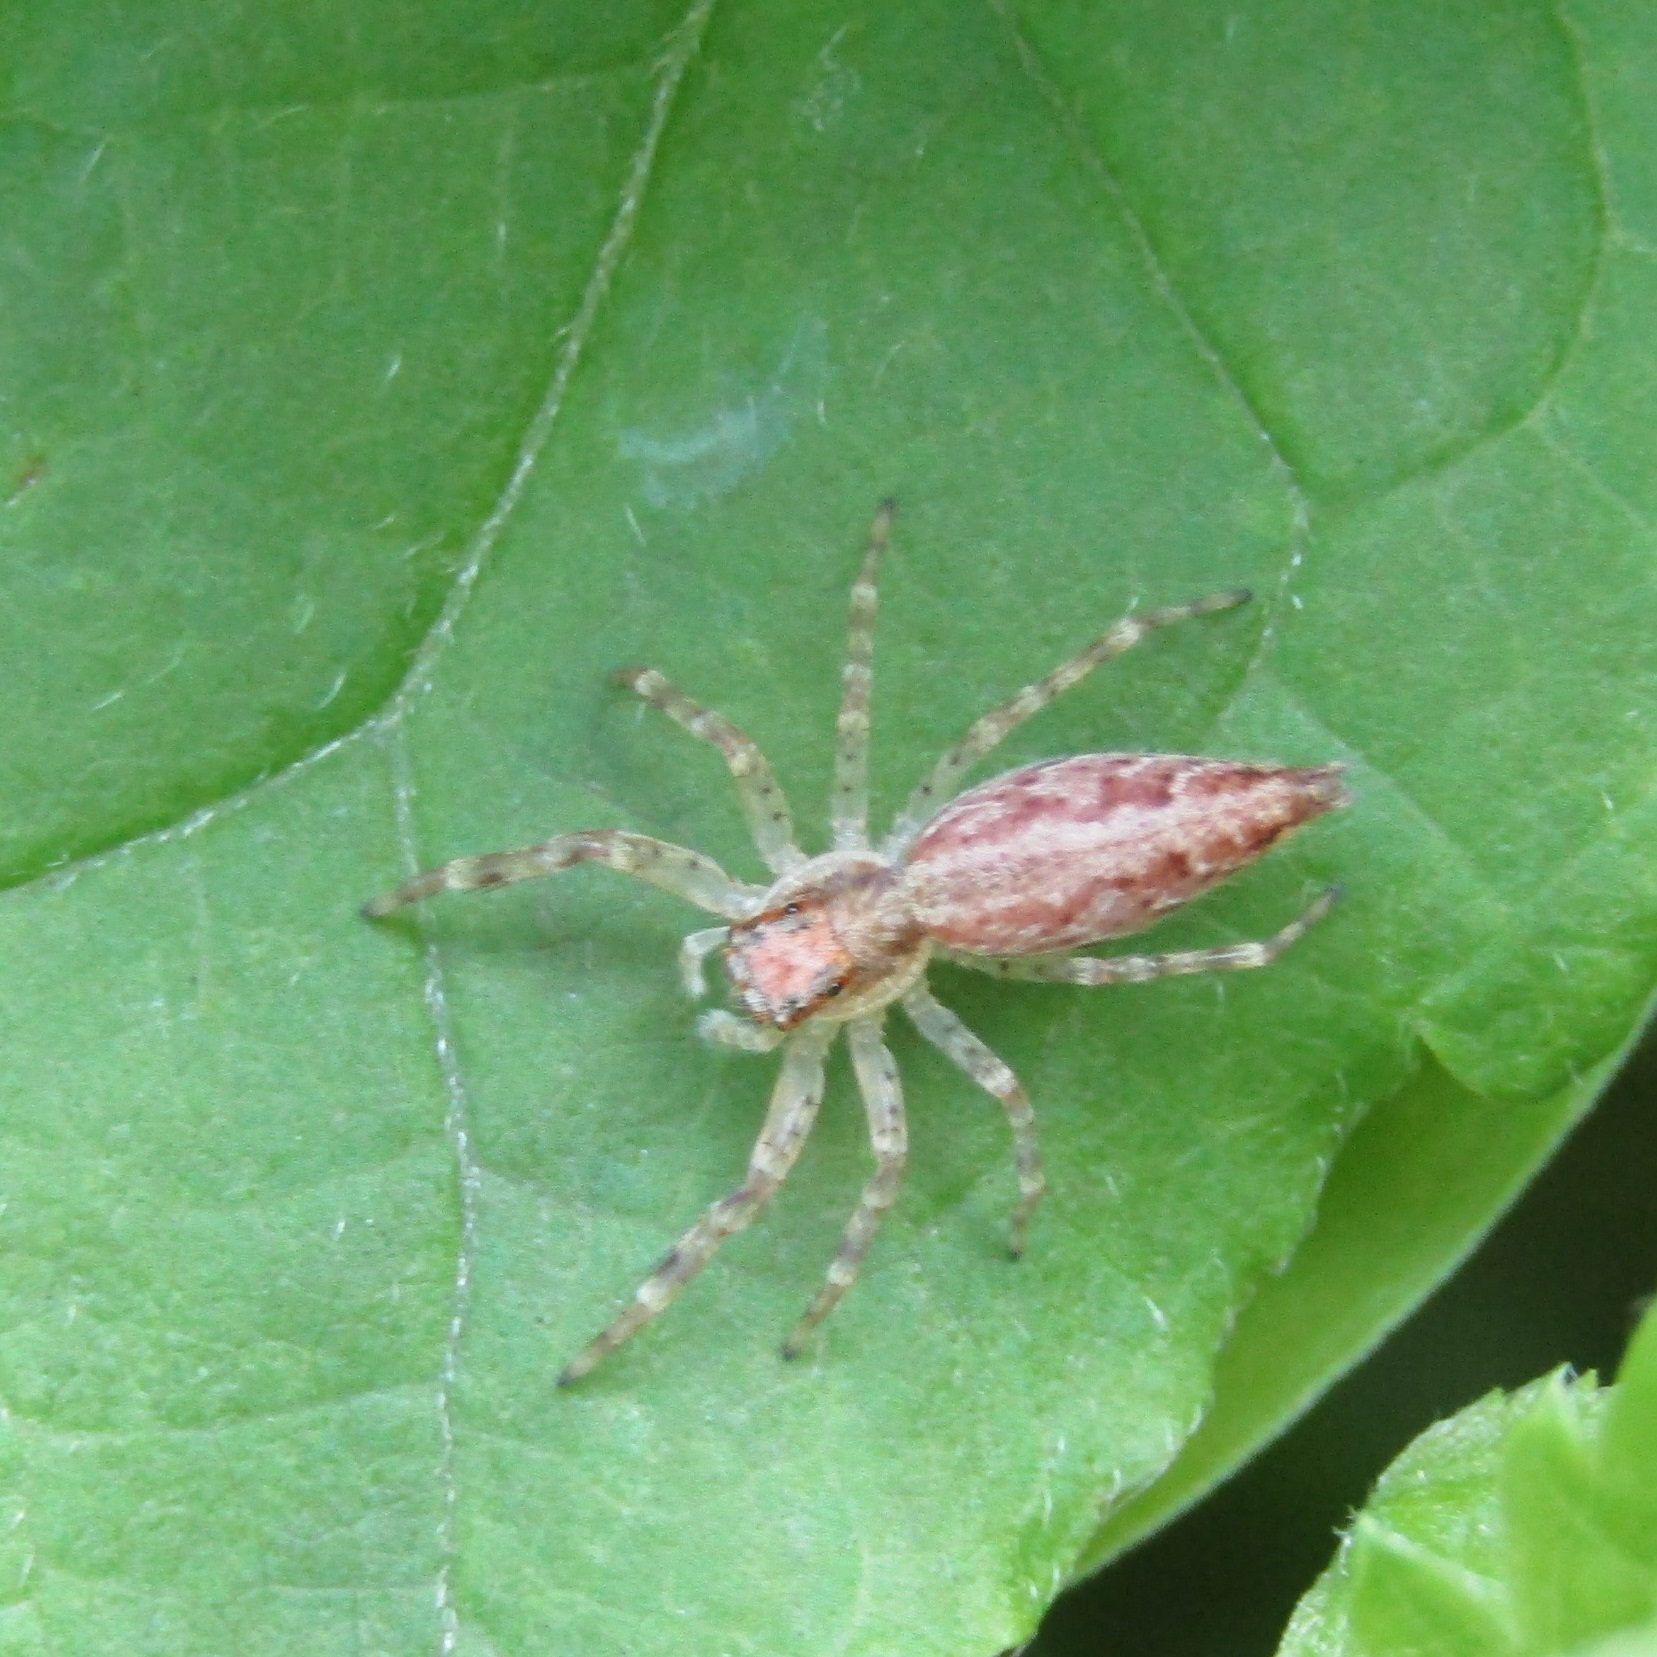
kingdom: Animalia
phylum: Arthropoda
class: Arachnida
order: Araneae
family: Salticidae
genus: Helpis
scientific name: Helpis minitabunda
